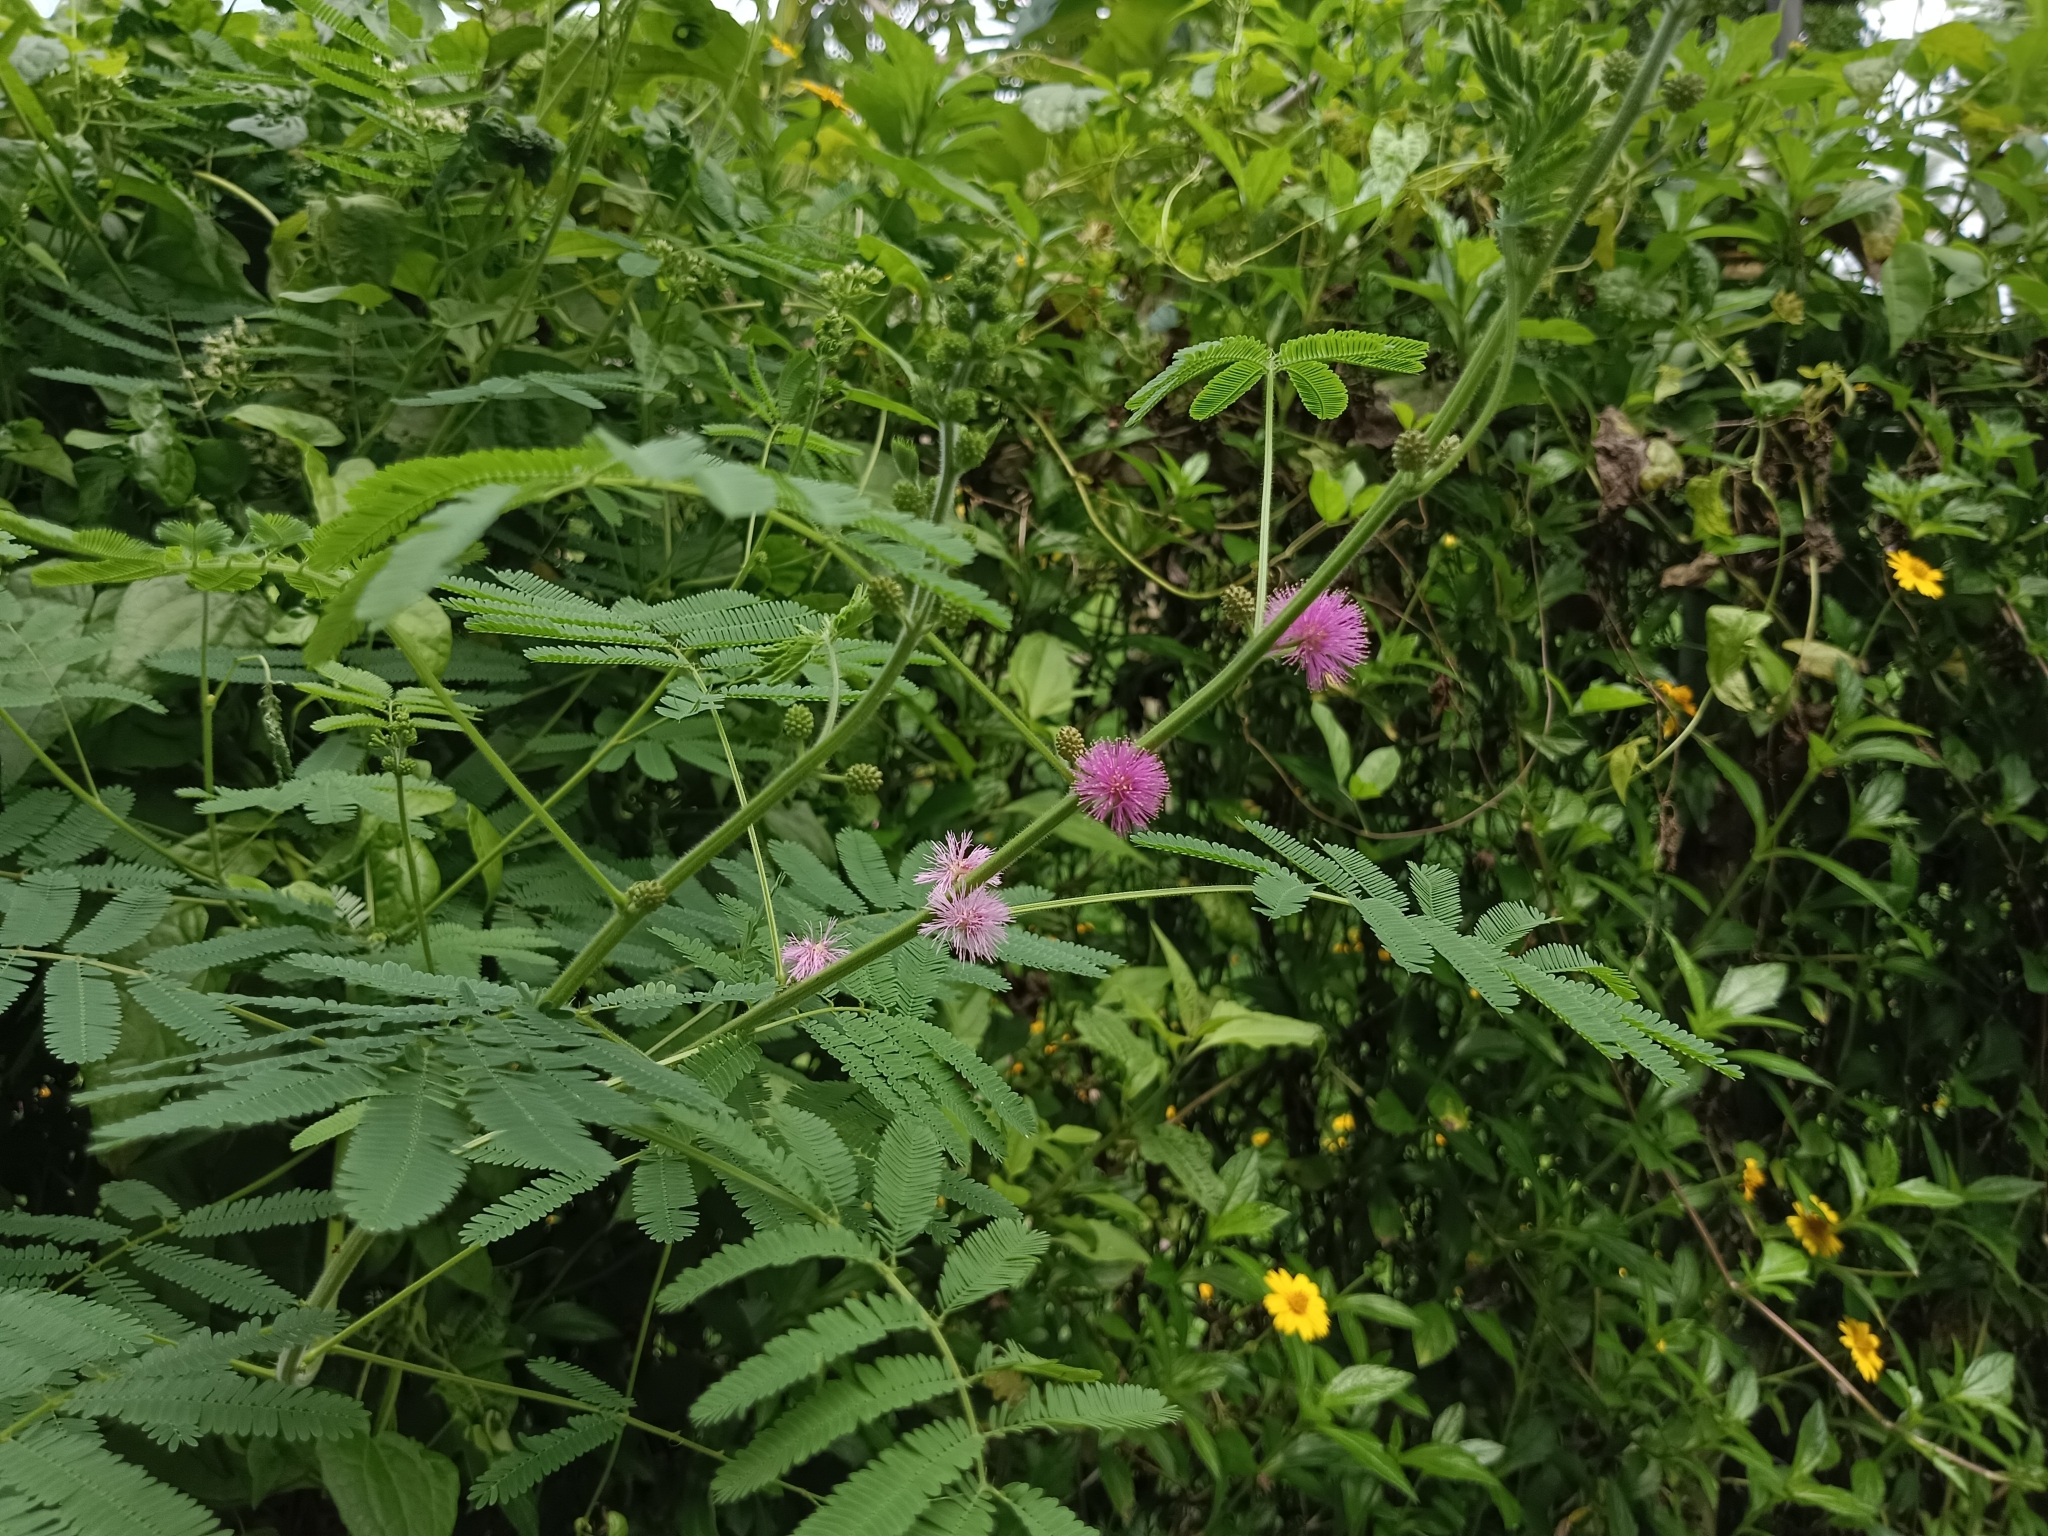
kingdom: Plantae
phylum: Tracheophyta
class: Magnoliopsida
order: Fabales
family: Fabaceae
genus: Mimosa
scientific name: Mimosa diplotricha
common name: Giant sensitive-plant
